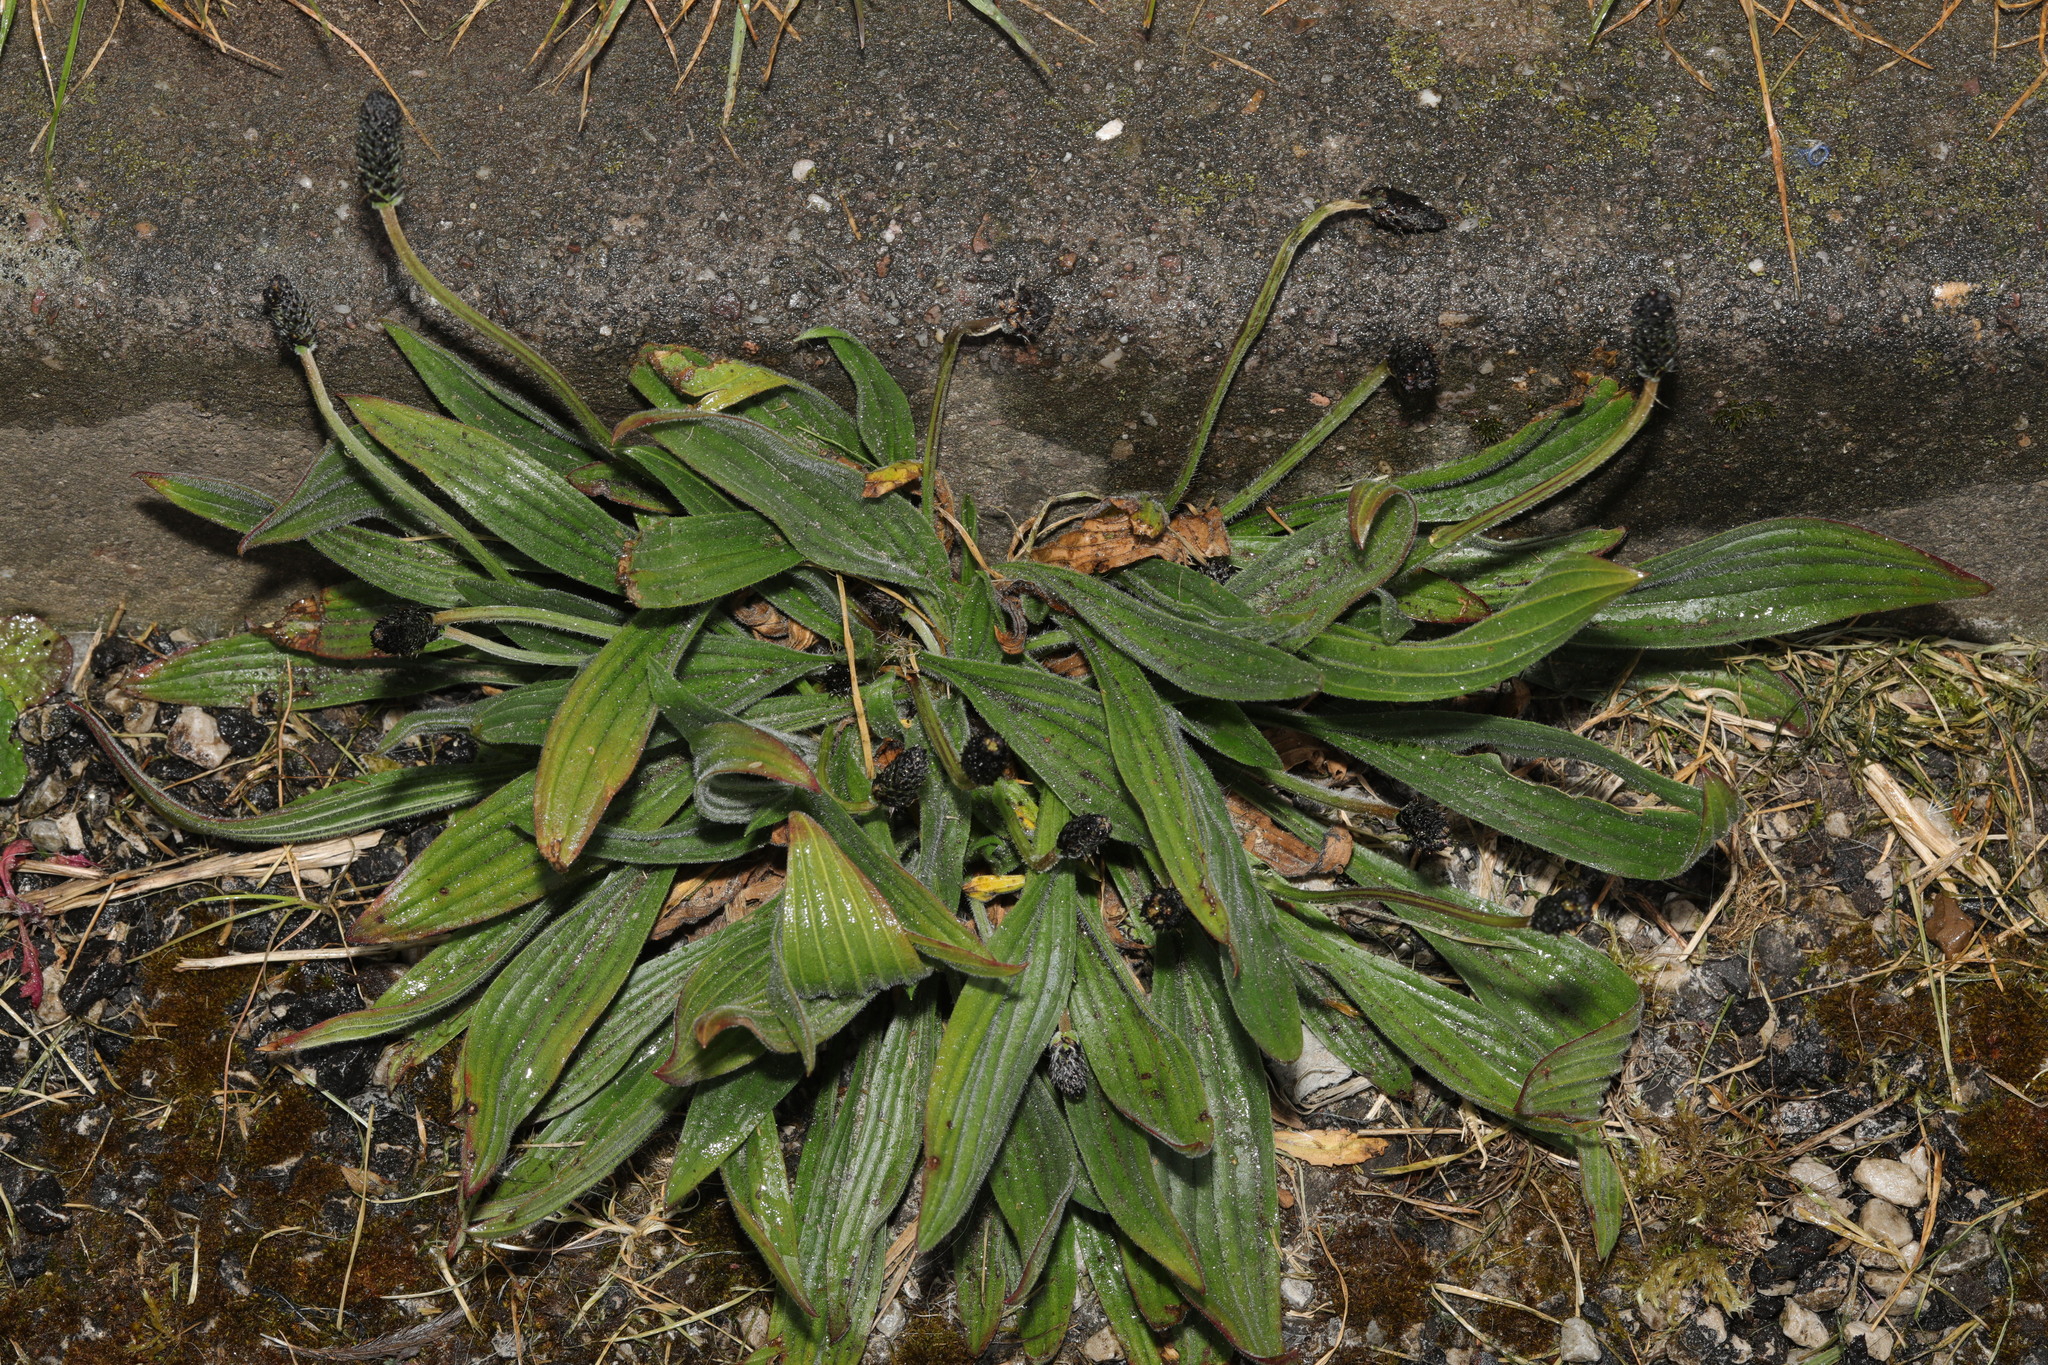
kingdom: Plantae
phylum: Tracheophyta
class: Magnoliopsida
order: Lamiales
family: Plantaginaceae
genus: Plantago
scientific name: Plantago lanceolata
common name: Ribwort plantain
